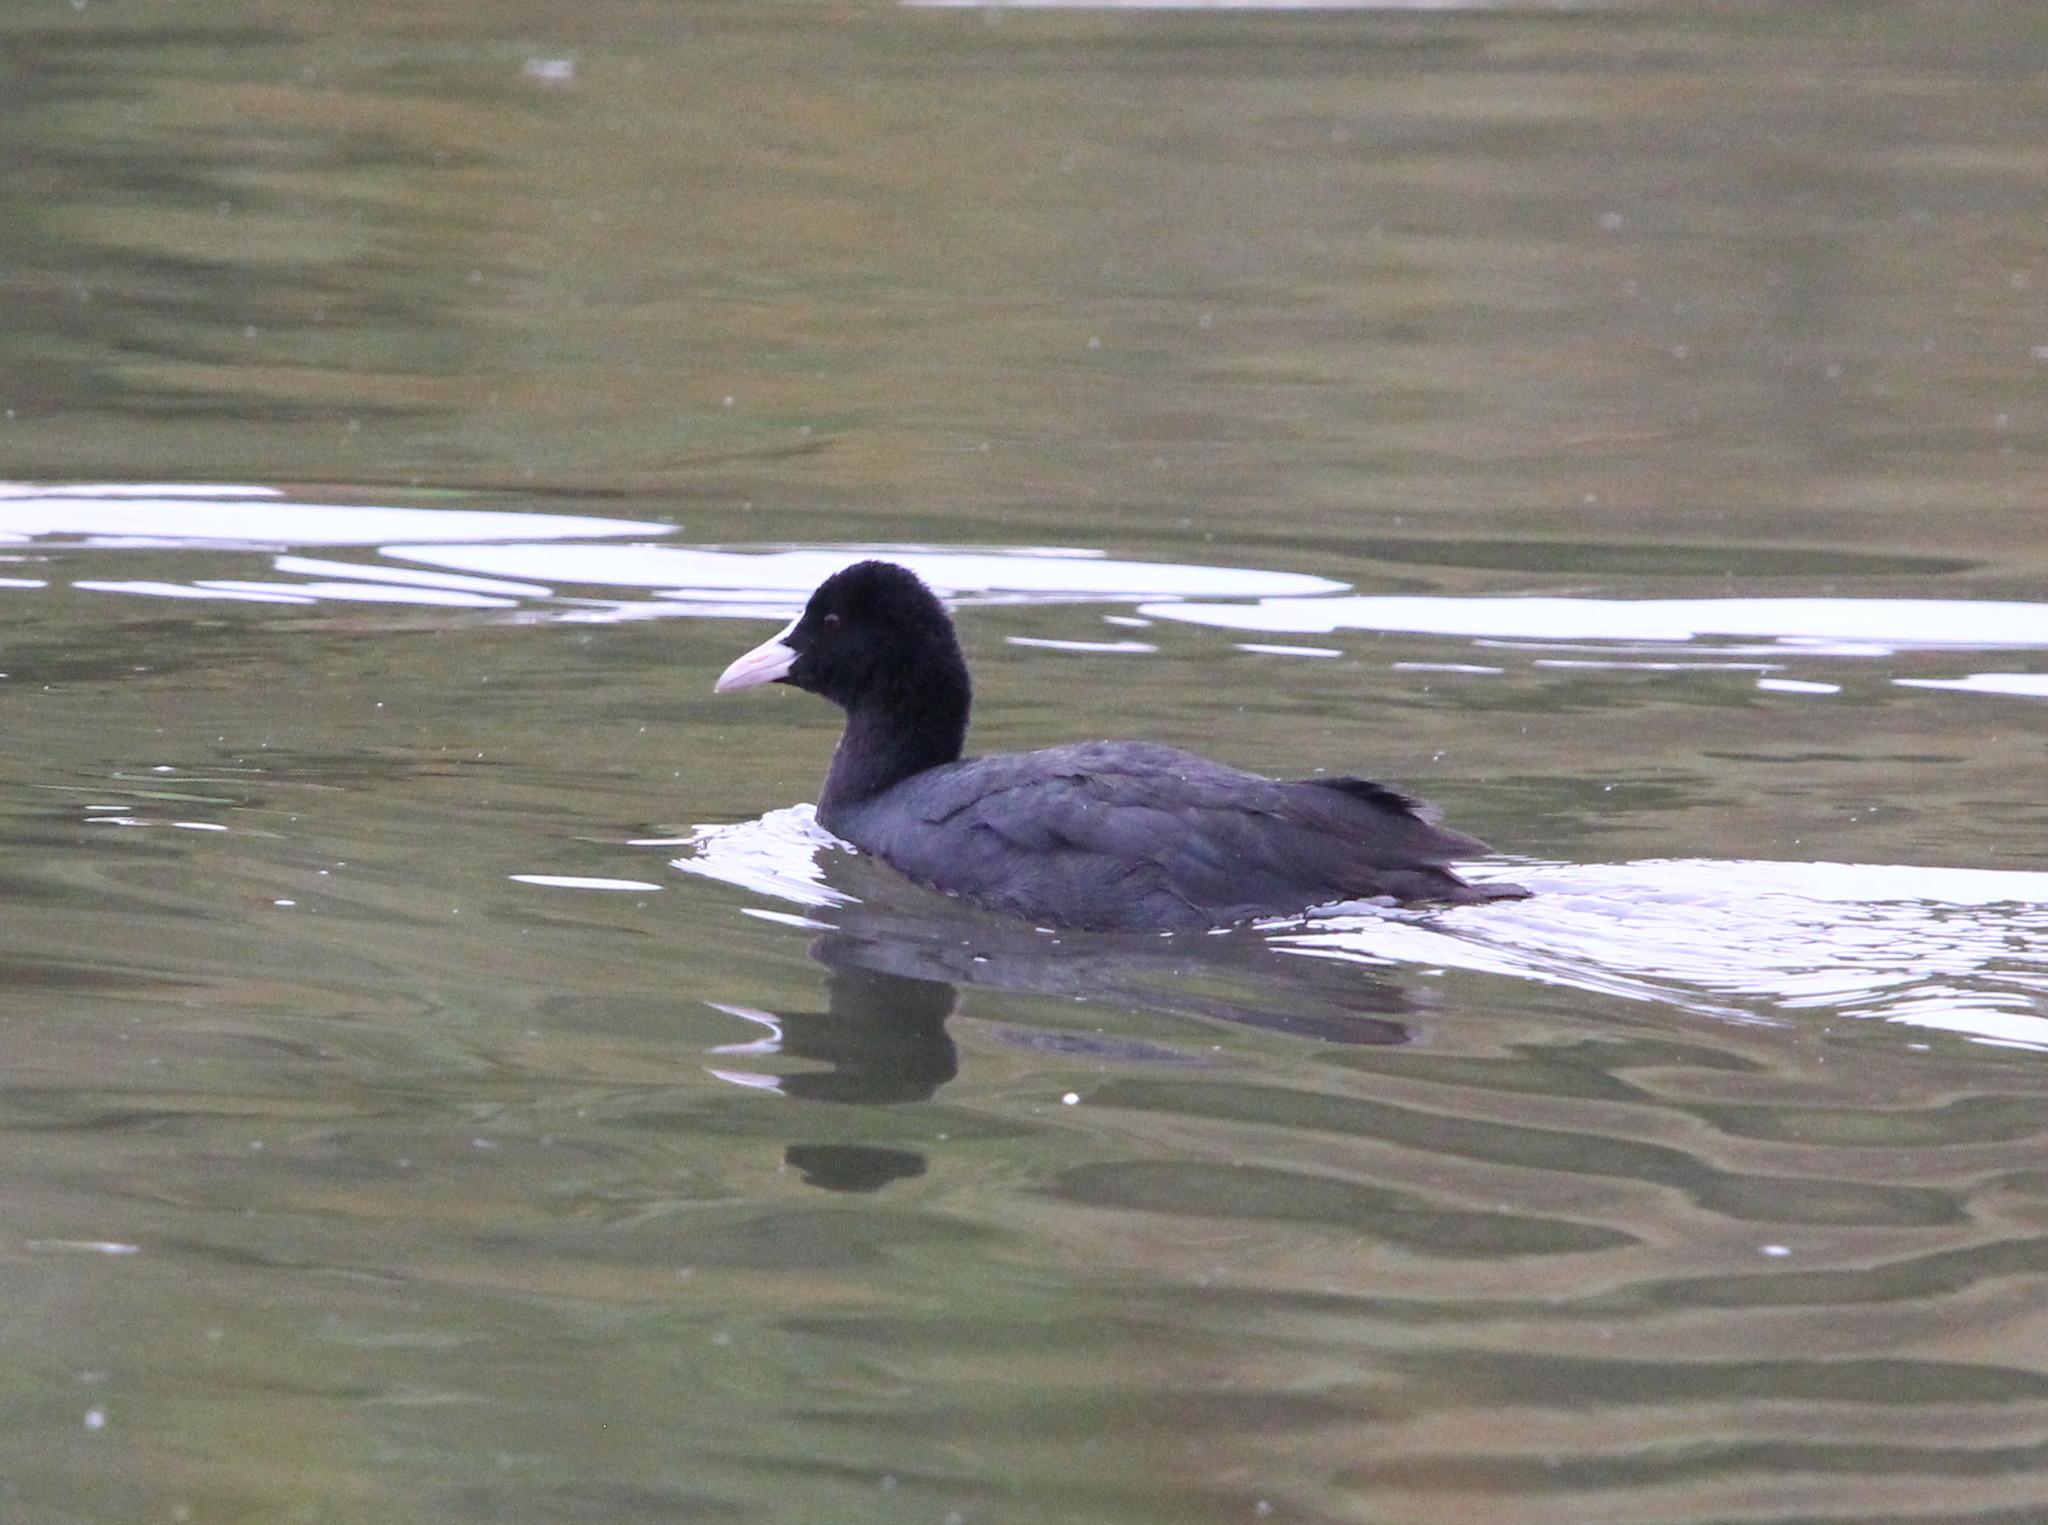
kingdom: Animalia
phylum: Chordata
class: Aves
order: Gruiformes
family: Rallidae
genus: Fulica
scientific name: Fulica atra
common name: Eurasian coot
